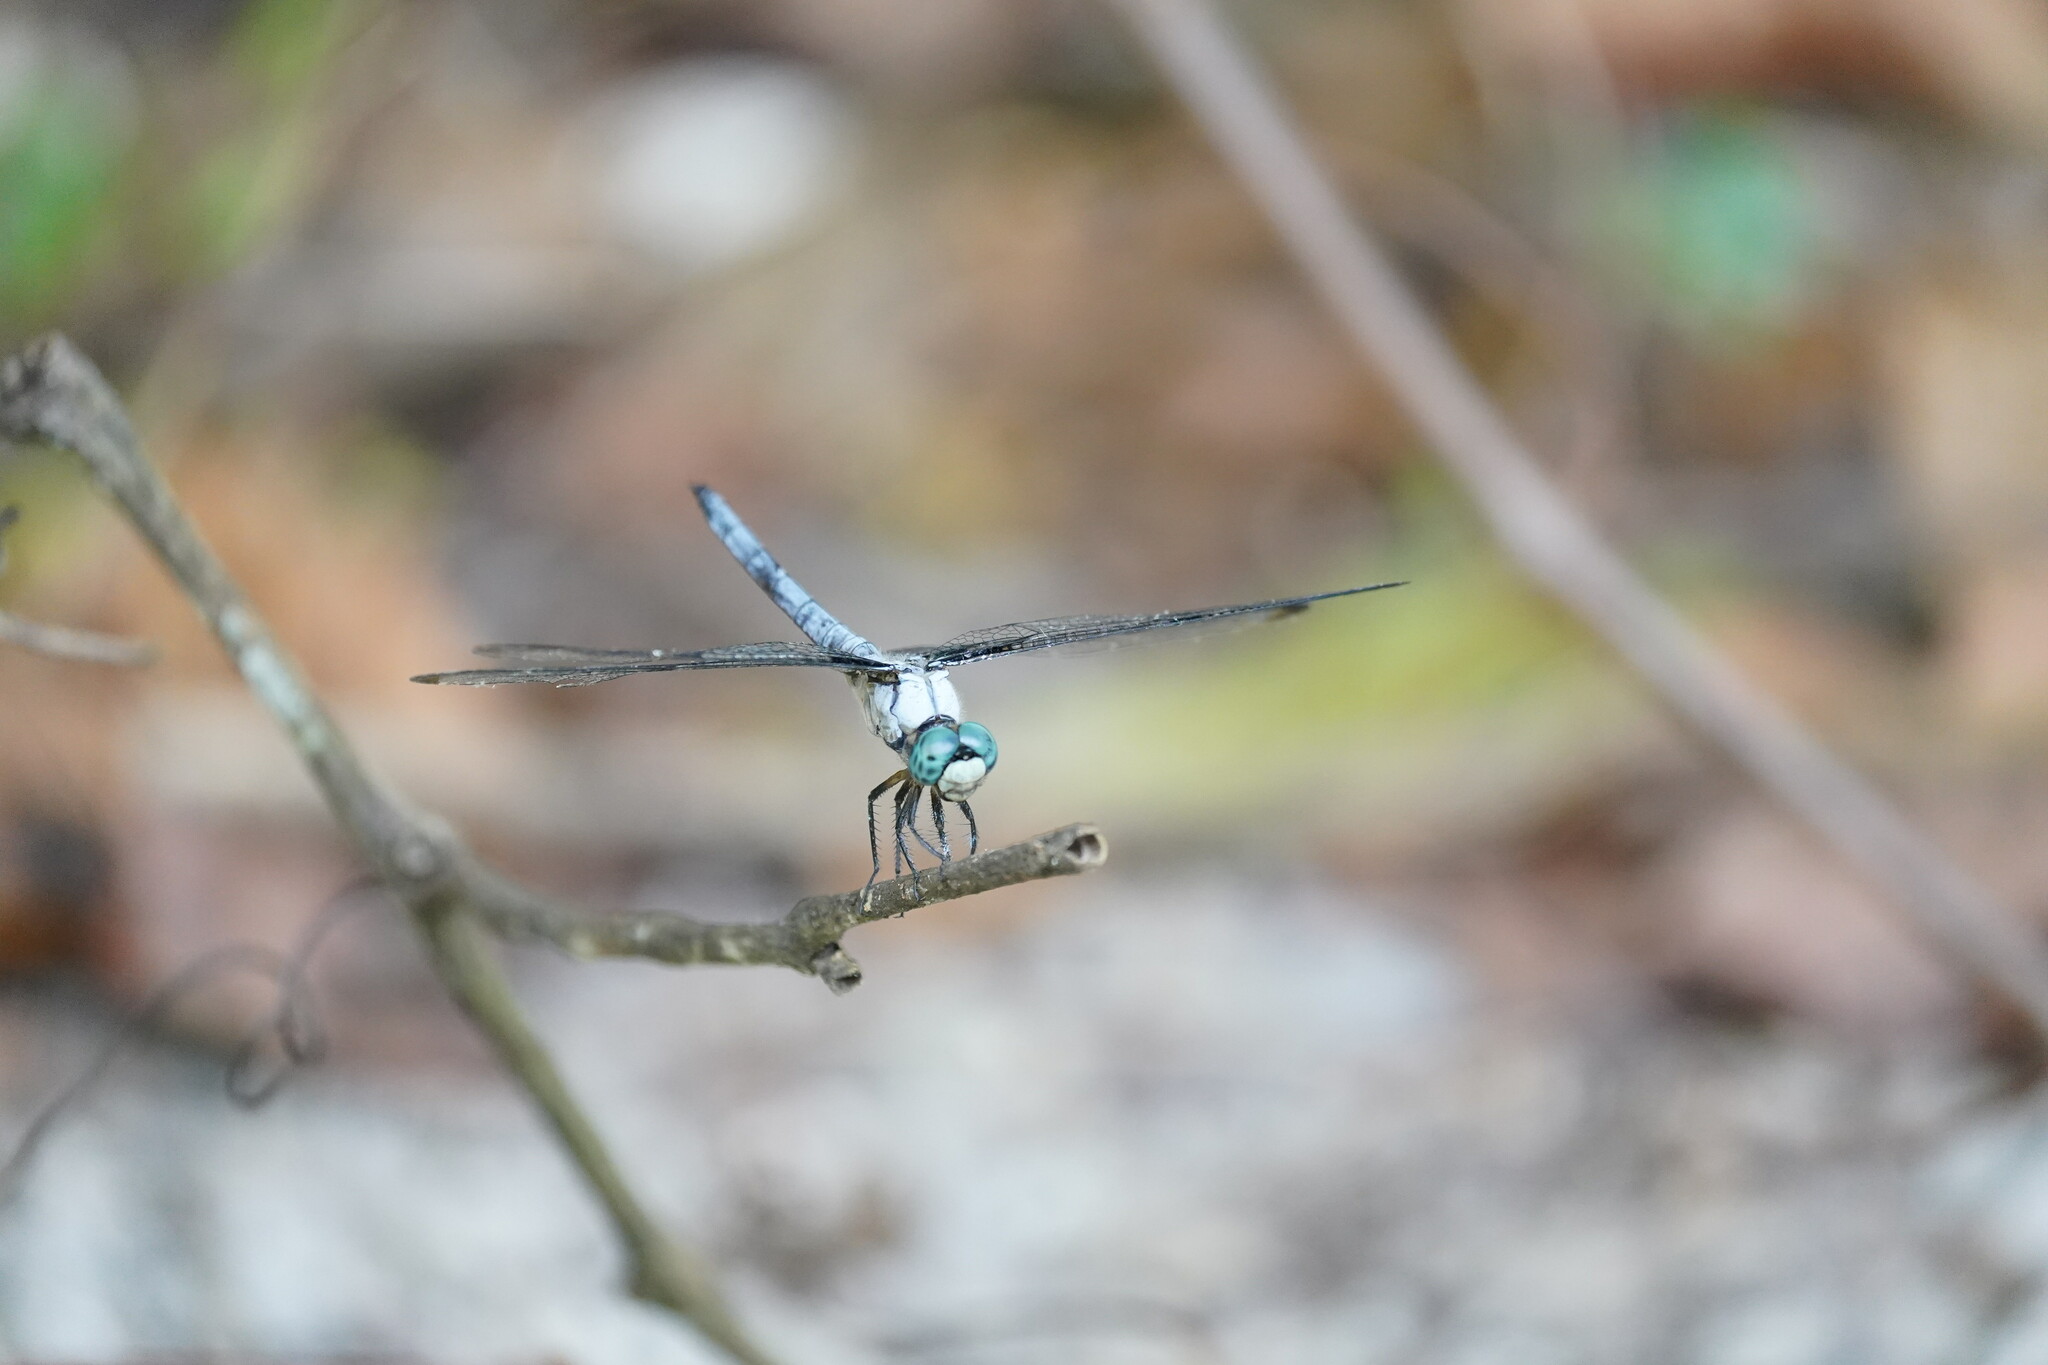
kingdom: Animalia
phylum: Arthropoda
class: Insecta
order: Odonata
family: Libellulidae
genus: Libellula
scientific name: Libellula vibrans
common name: Great blue skimmer
